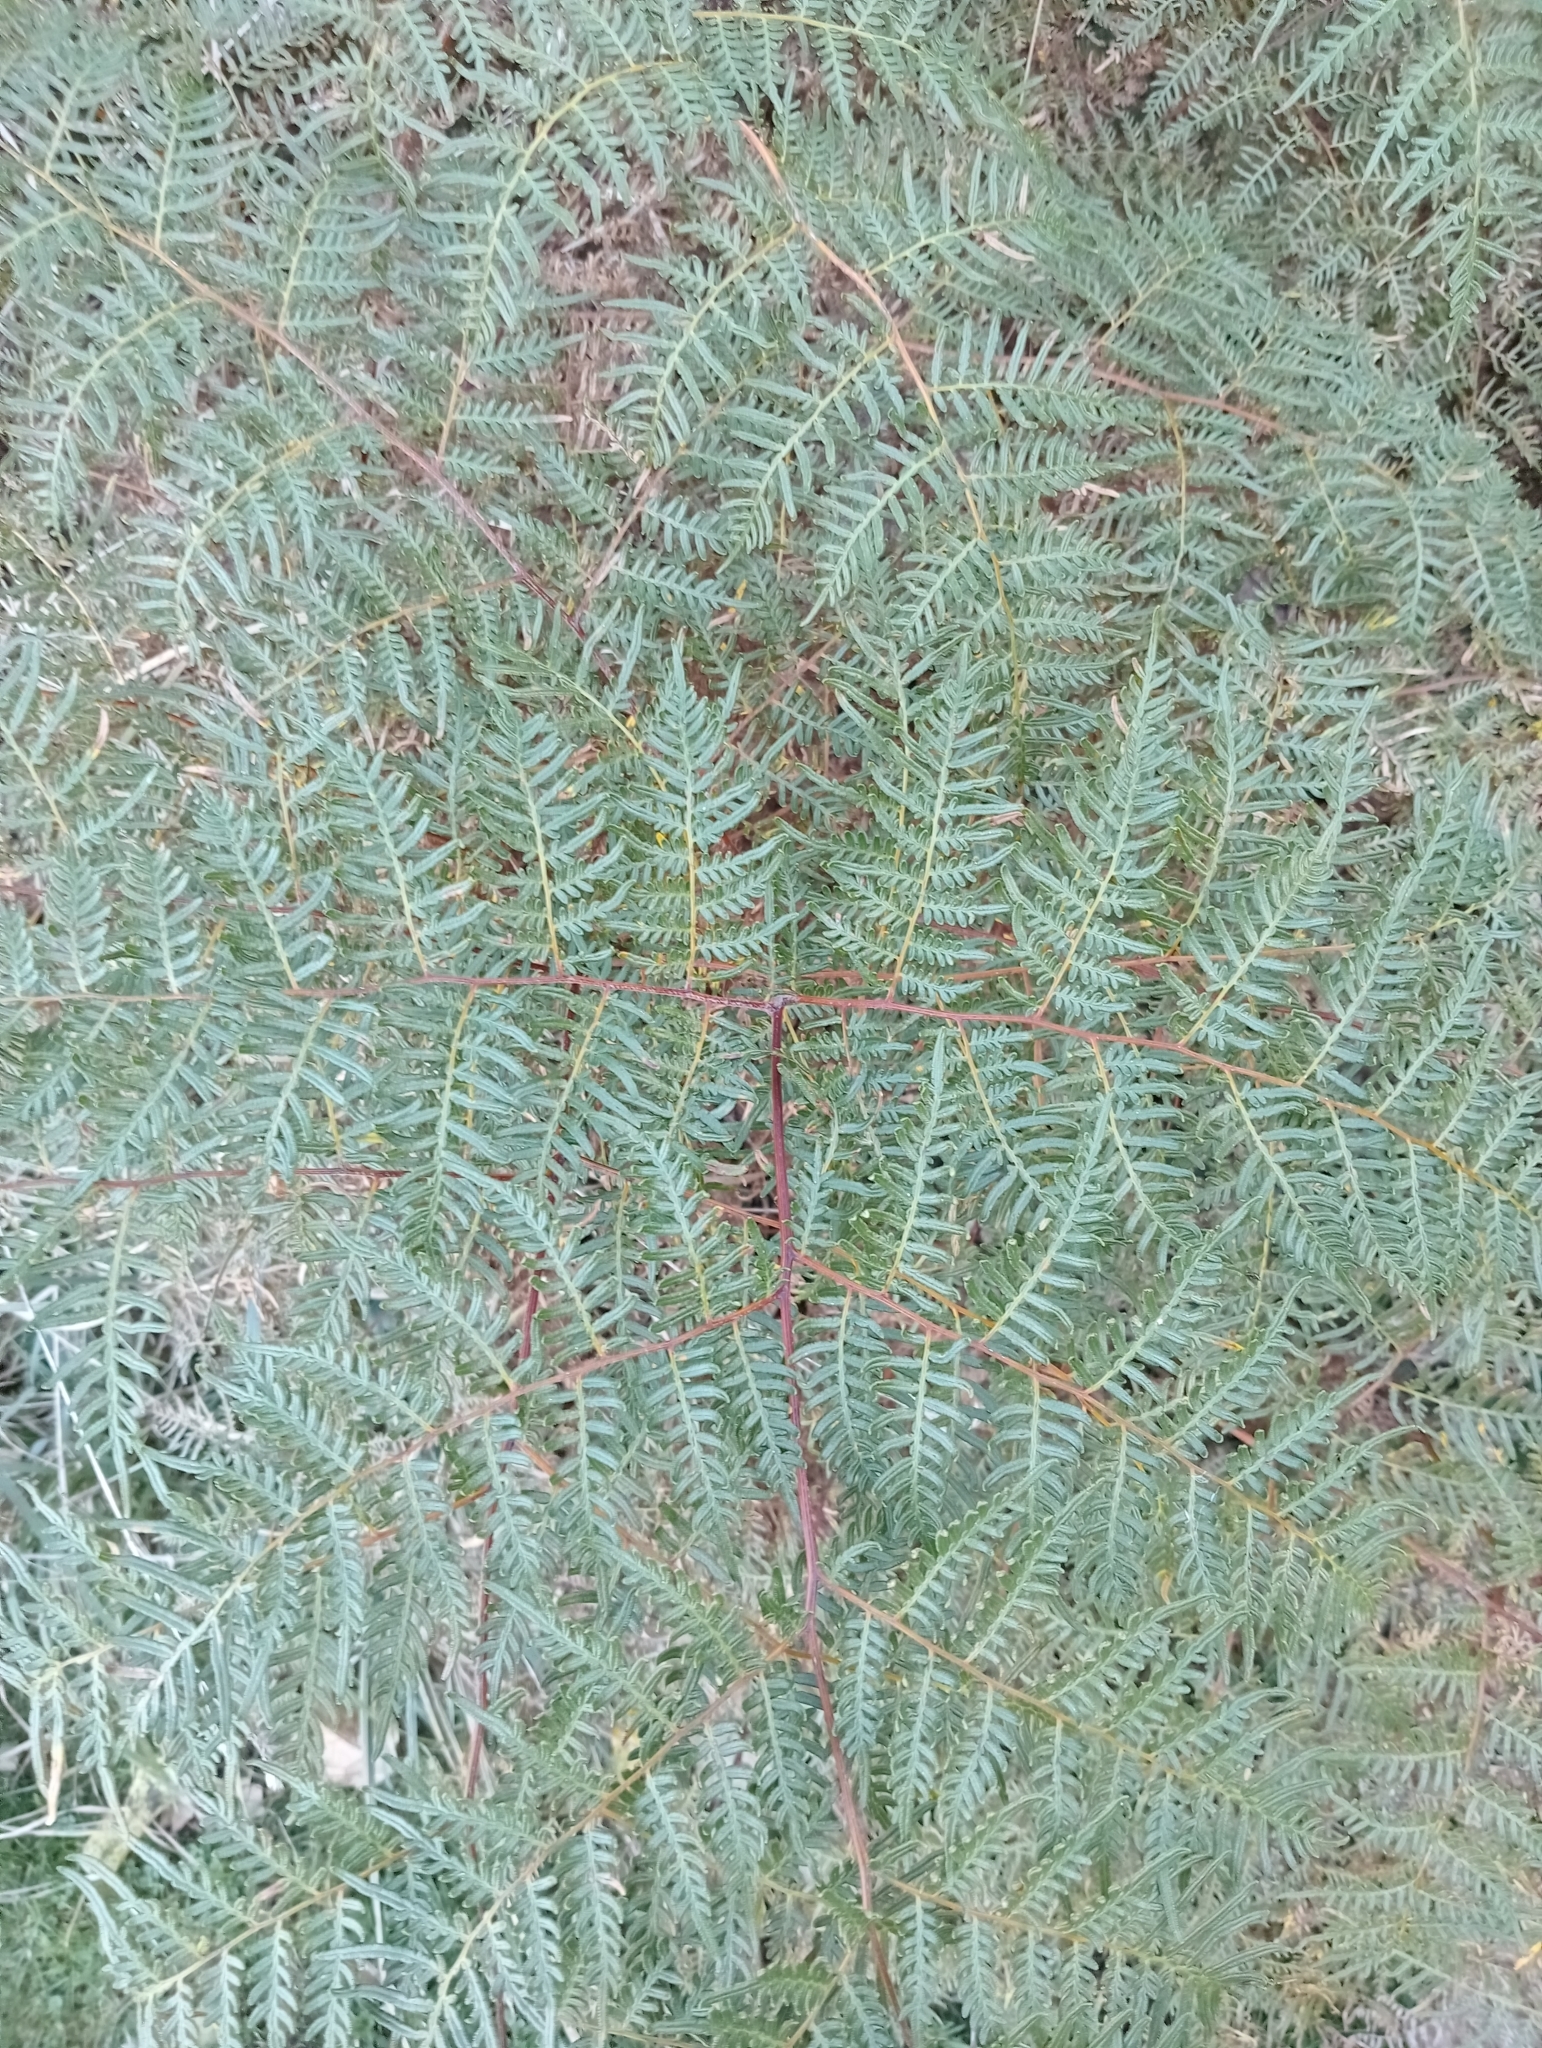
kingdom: Plantae
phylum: Tracheophyta
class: Polypodiopsida
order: Polypodiales
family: Dennstaedtiaceae
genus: Pteridium
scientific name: Pteridium esculentum
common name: Bracken fern
